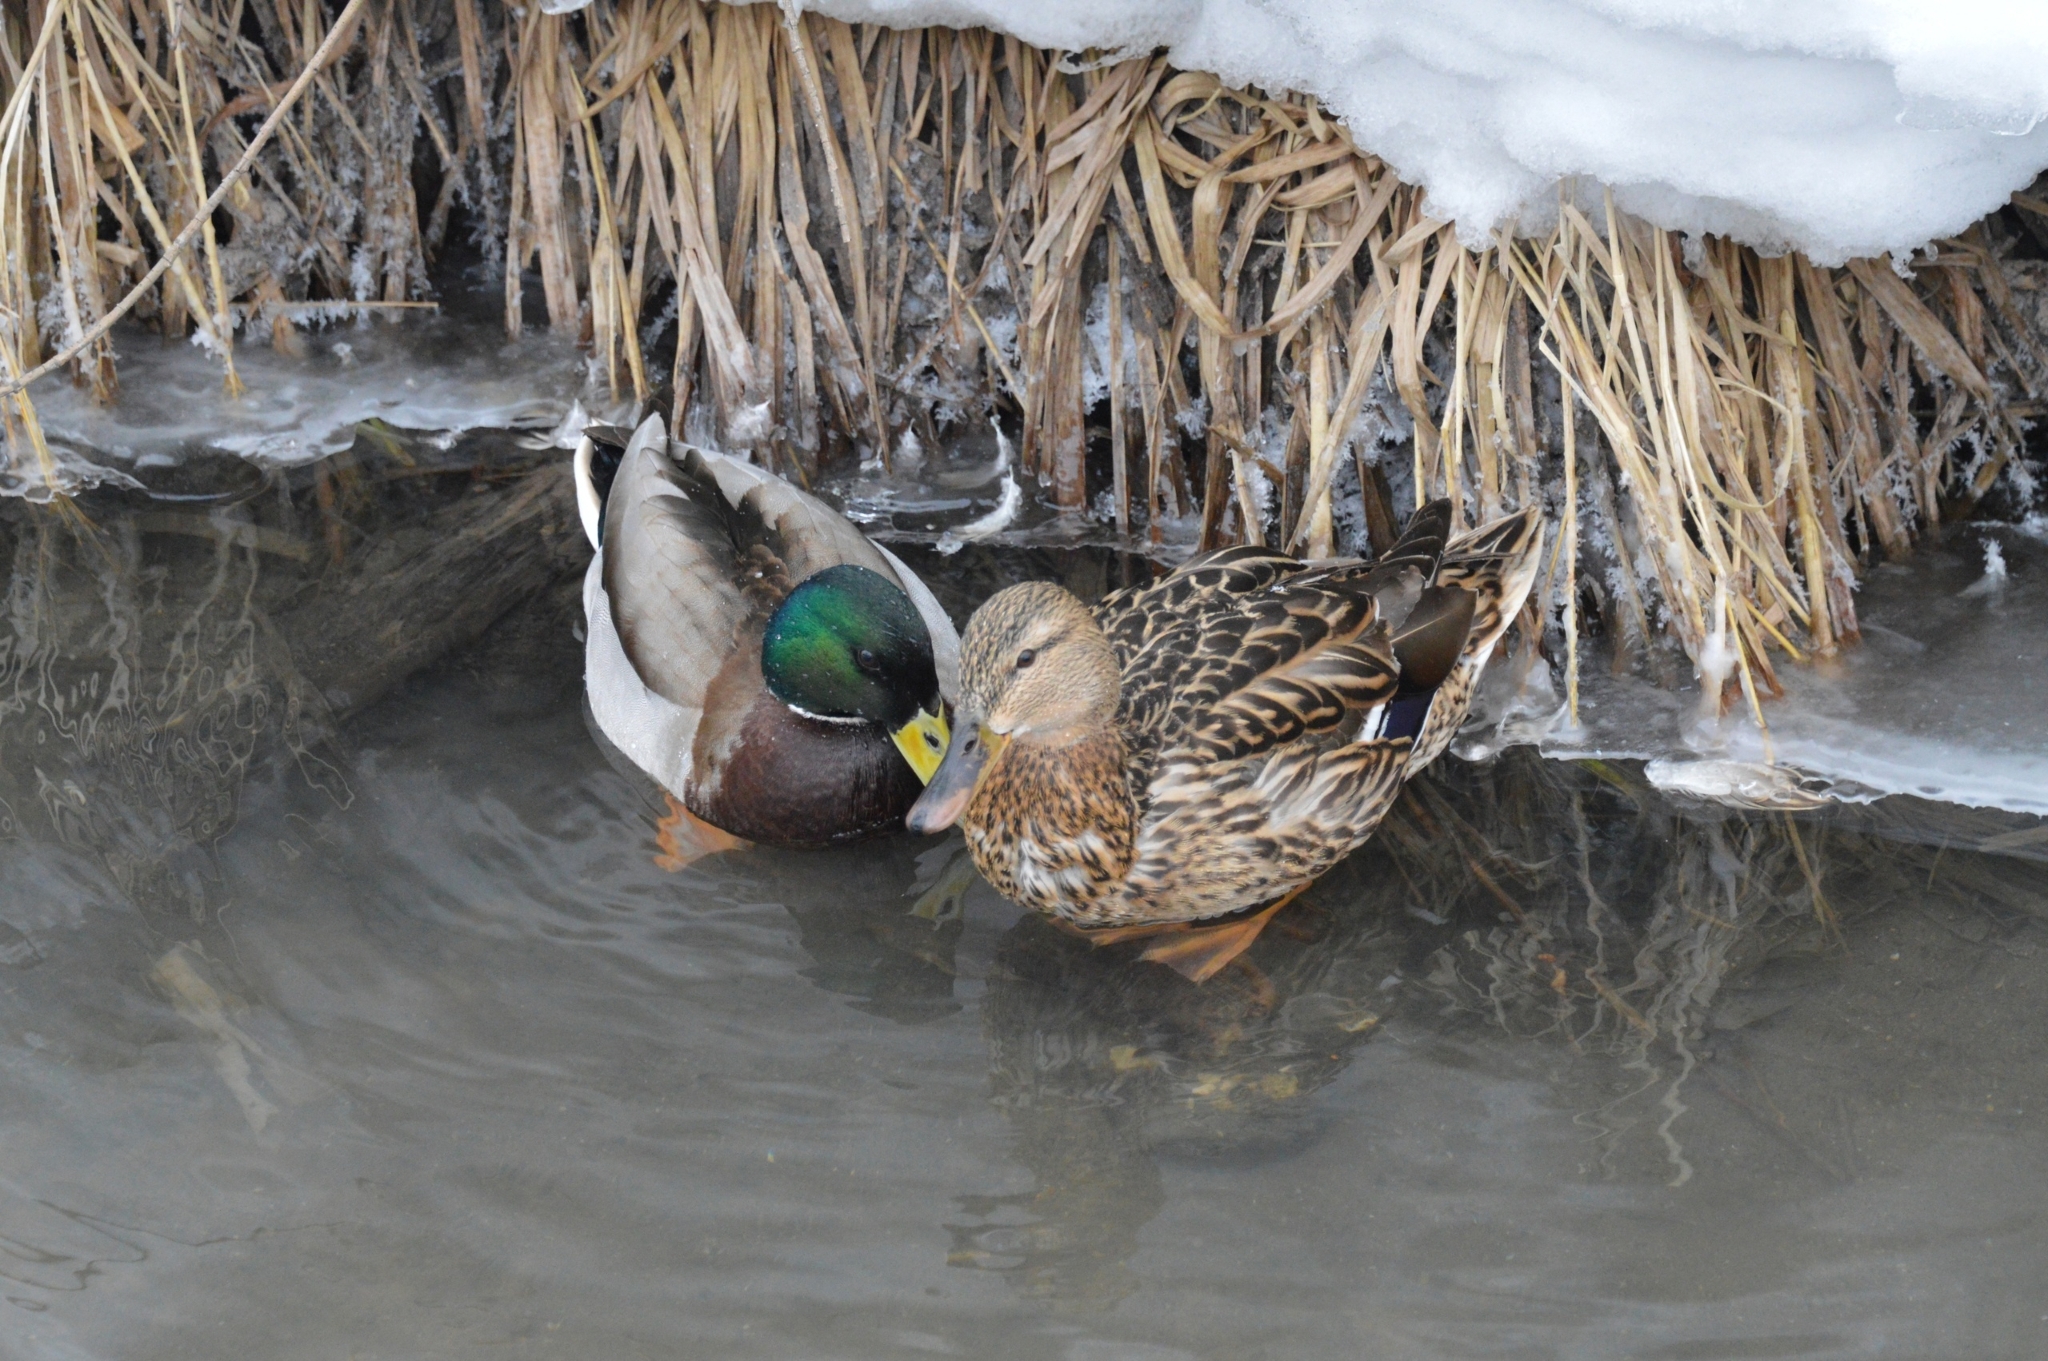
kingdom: Animalia
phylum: Chordata
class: Aves
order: Anseriformes
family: Anatidae
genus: Anas
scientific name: Anas platyrhynchos
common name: Mallard
